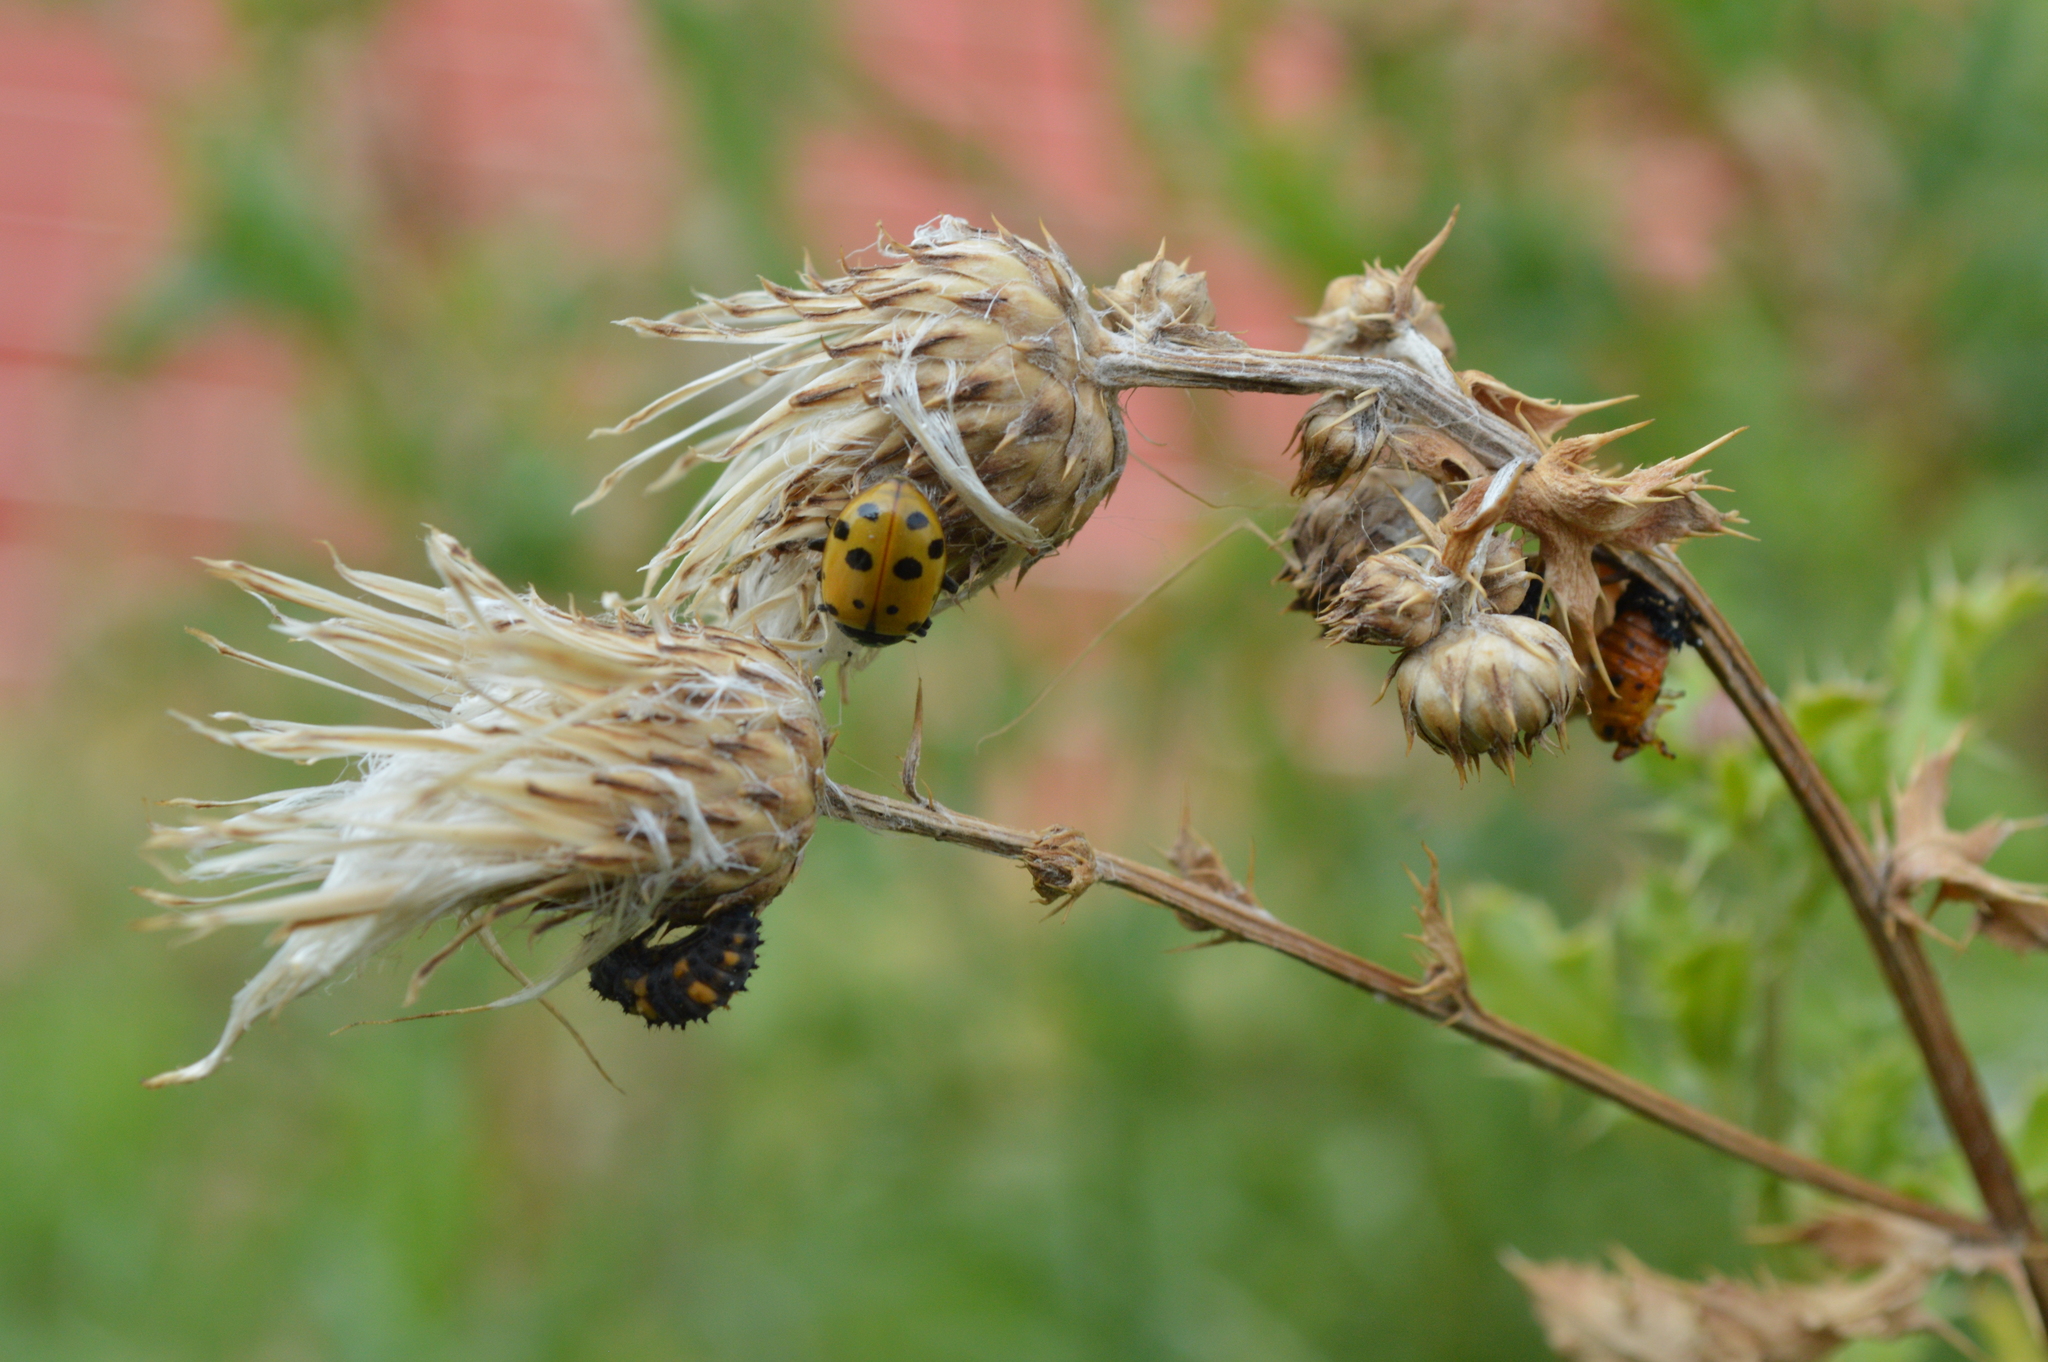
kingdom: Animalia
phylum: Arthropoda
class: Insecta
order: Coleoptera
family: Coccinellidae
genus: Hippodamia
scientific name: Hippodamia convergens
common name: Convergent lady beetle
